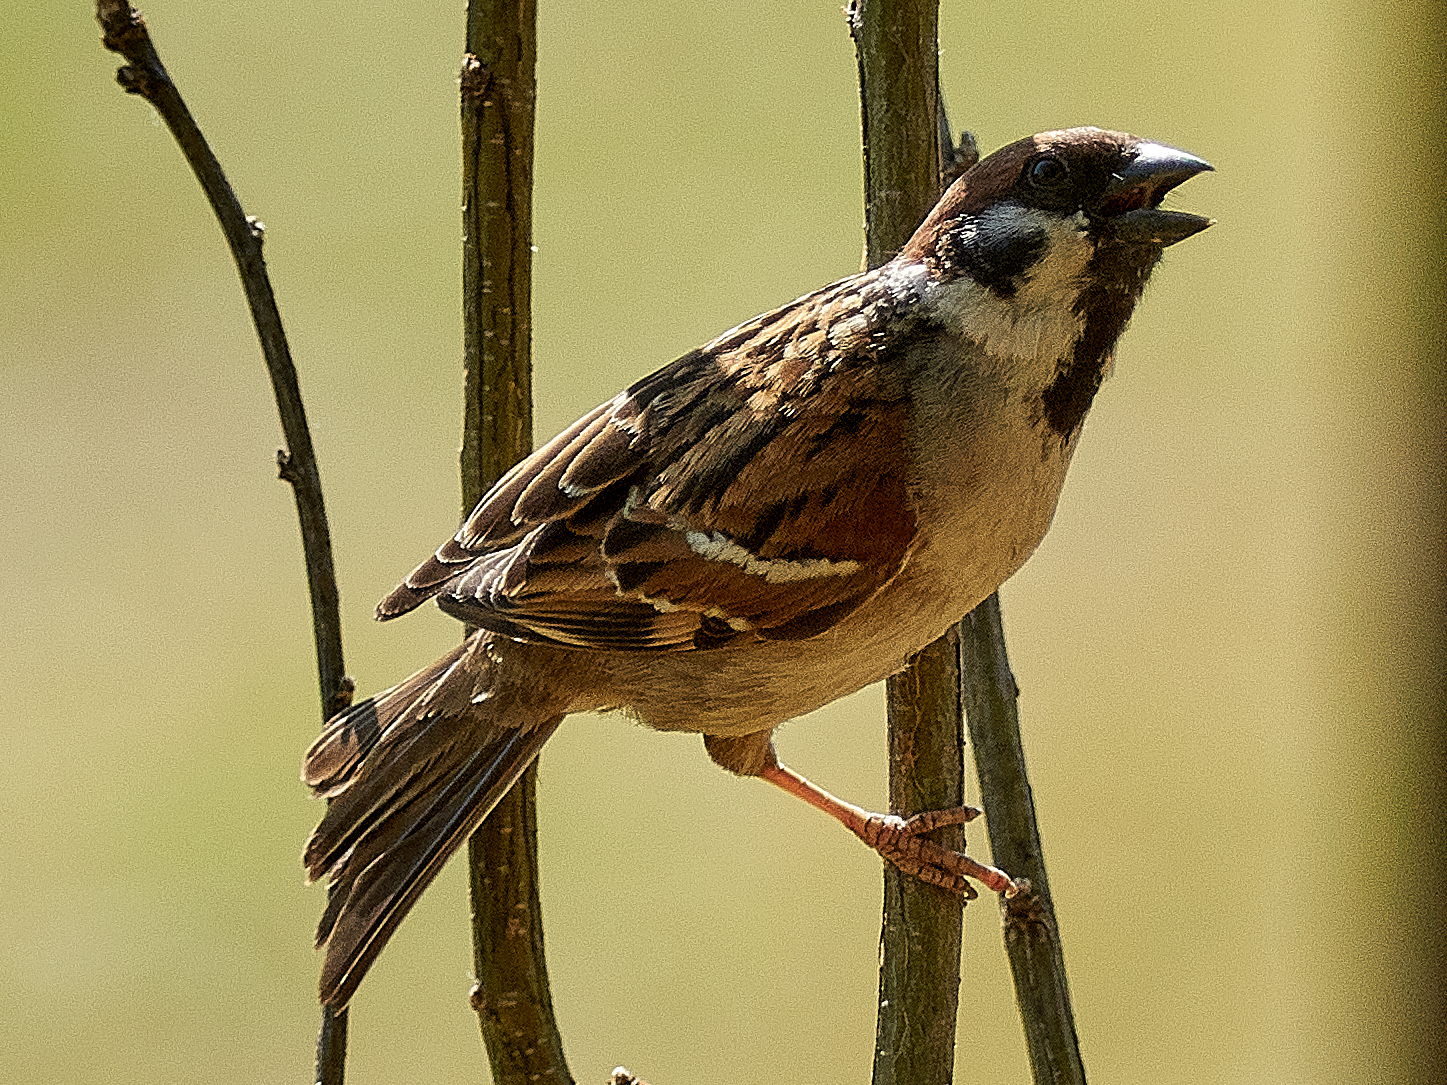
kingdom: Animalia
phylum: Chordata
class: Aves
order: Passeriformes
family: Passeridae
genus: Passer
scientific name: Passer montanus
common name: Eurasian tree sparrow
